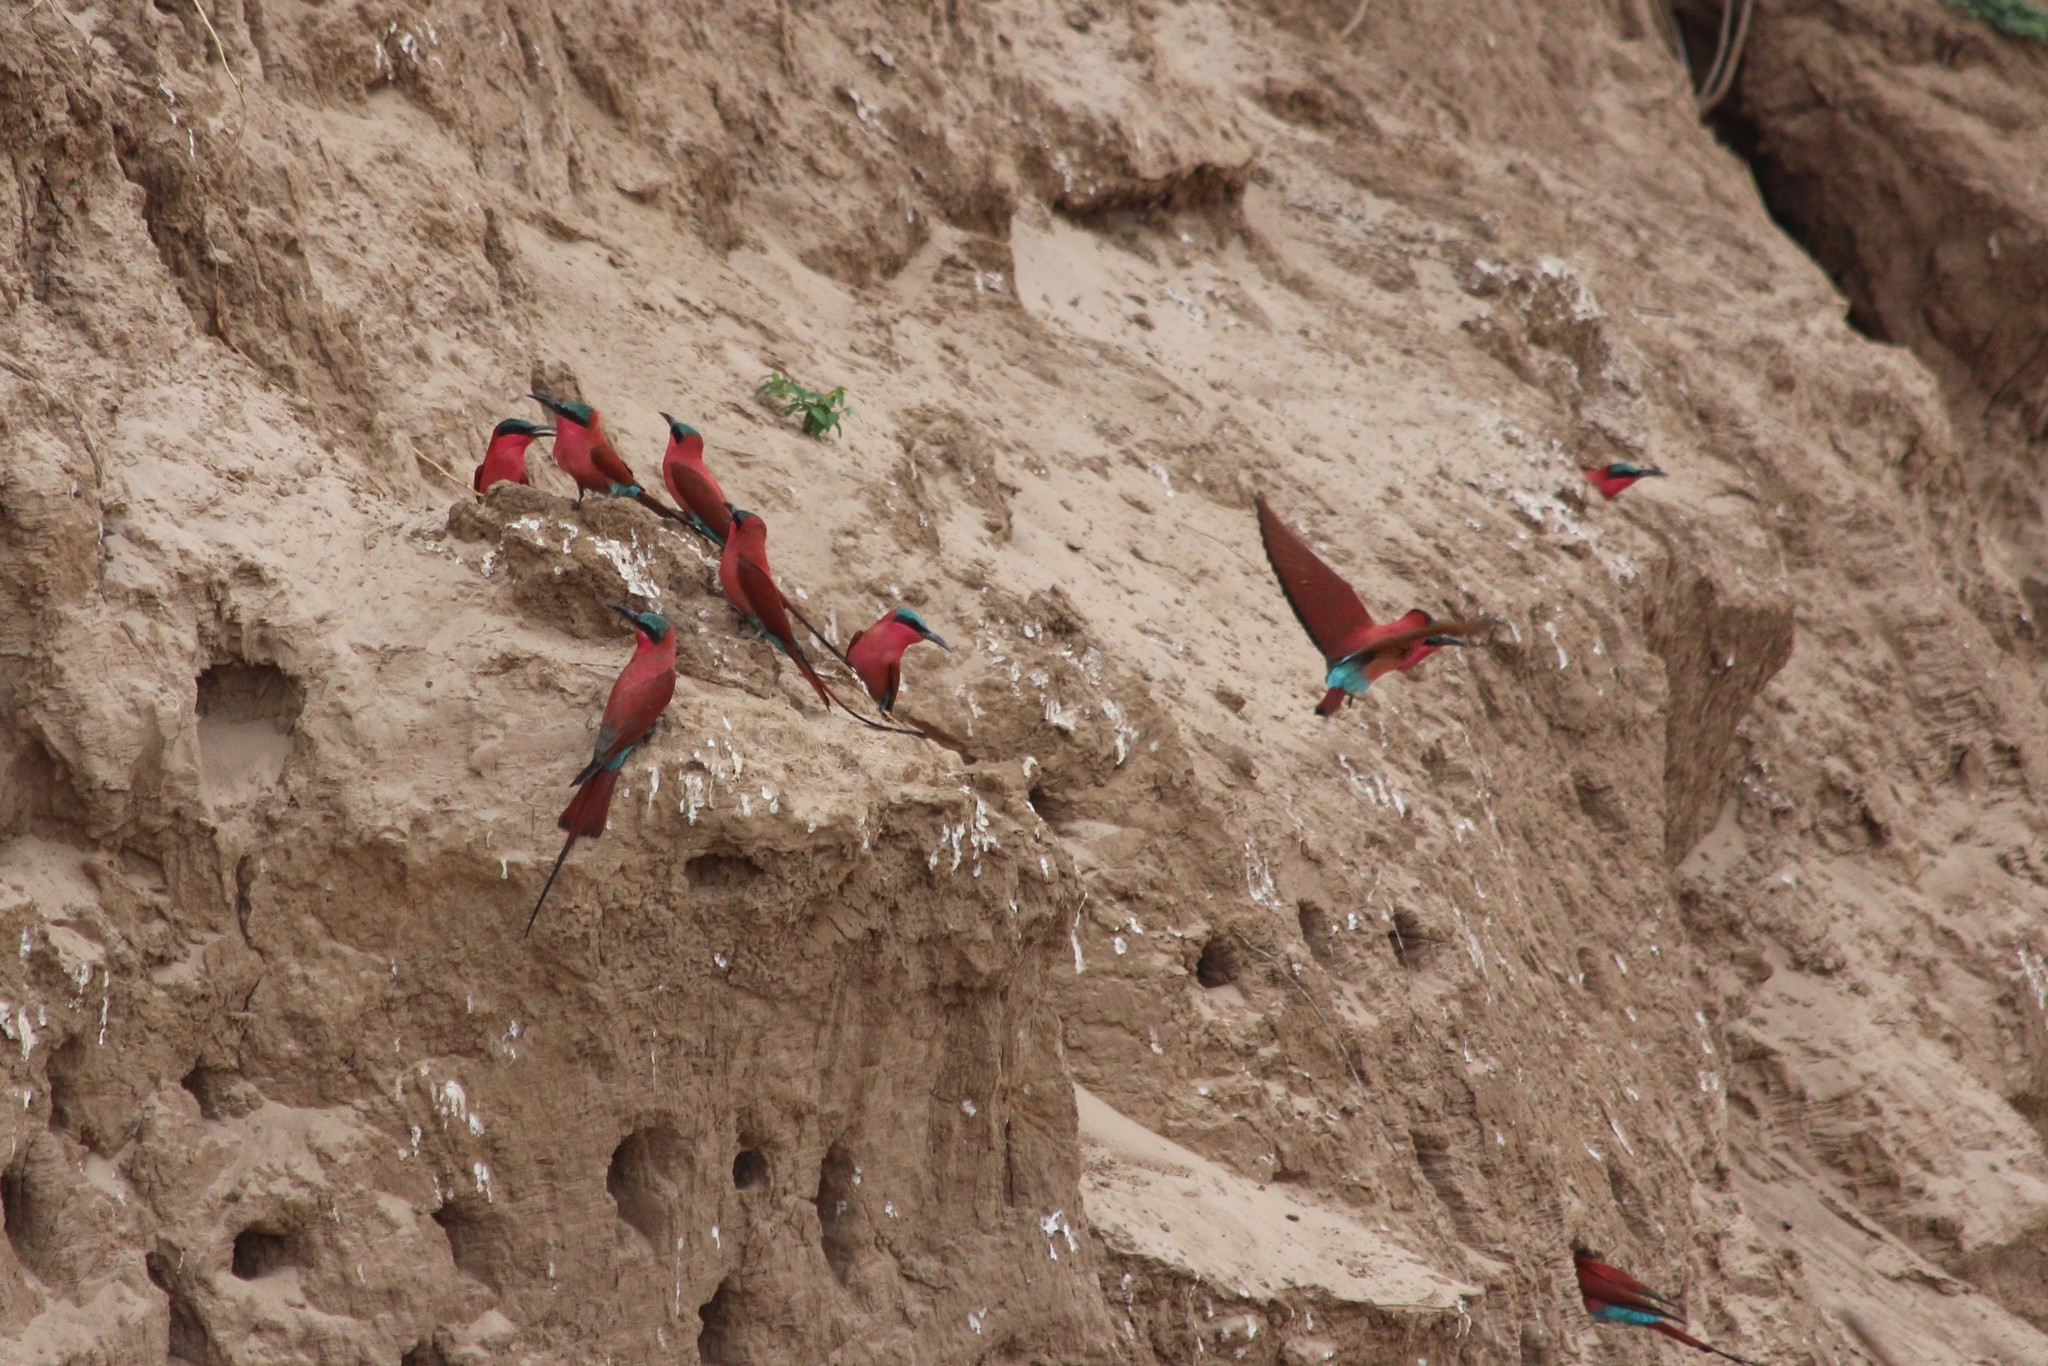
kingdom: Animalia
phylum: Chordata
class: Aves
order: Coraciiformes
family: Meropidae
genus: Merops
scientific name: Merops nubicoides
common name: Southern carmine bee-eater
